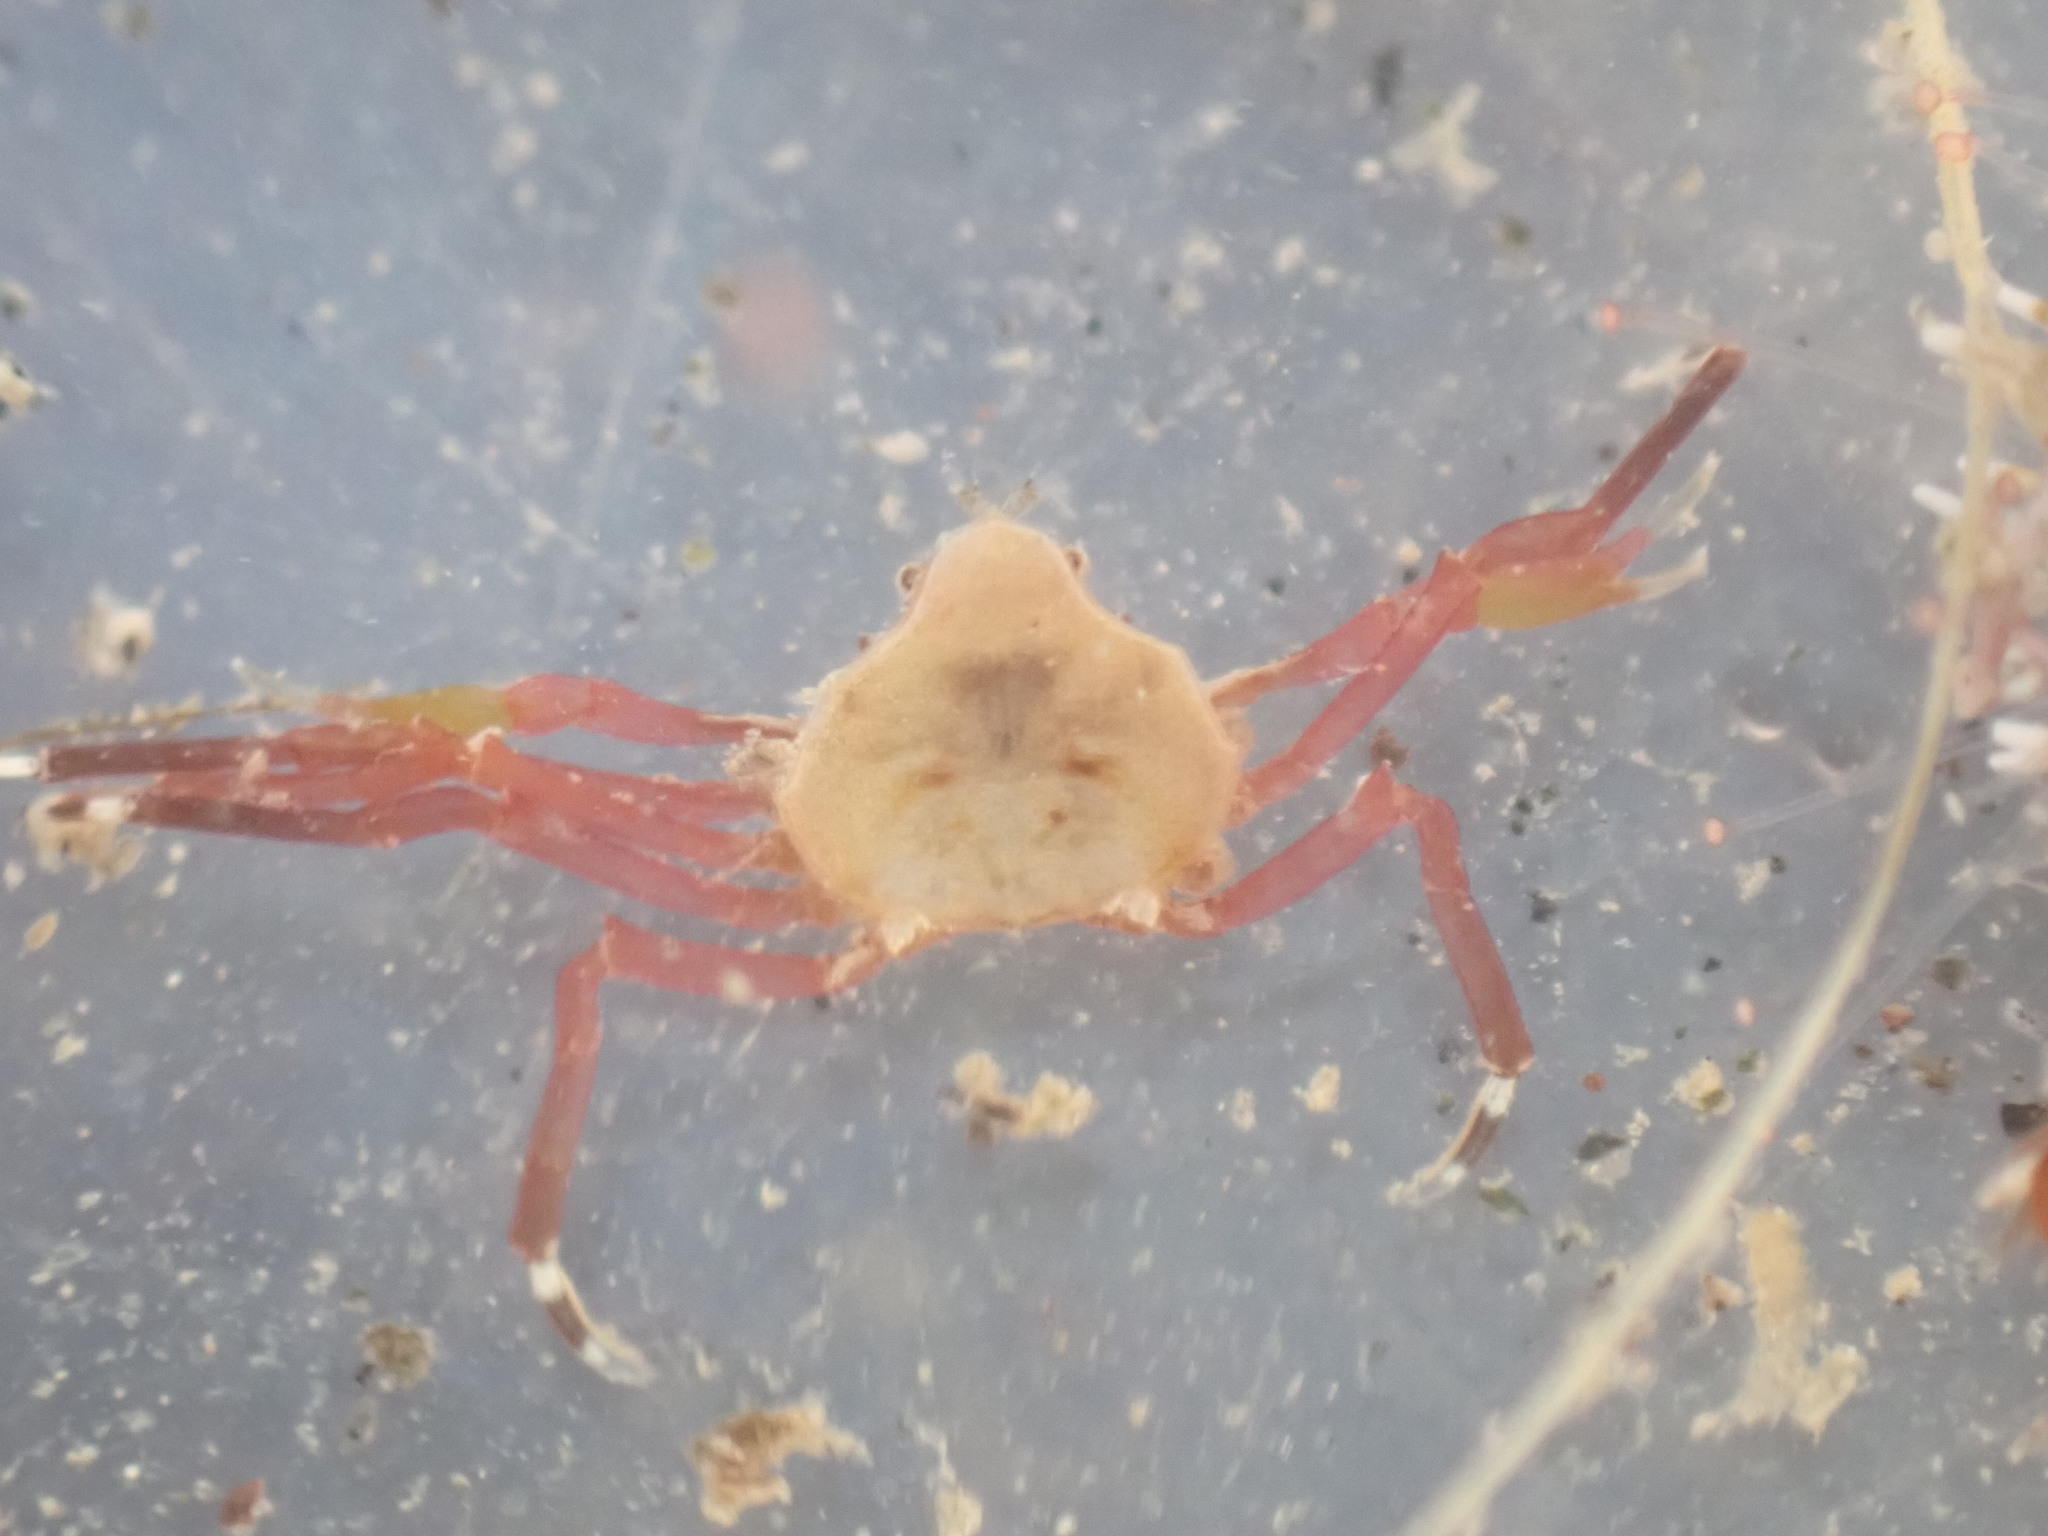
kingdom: Animalia
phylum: Arthropoda
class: Malacostraca
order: Decapoda
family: Hymenosomatidae
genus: Elamena
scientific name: Elamena producta
